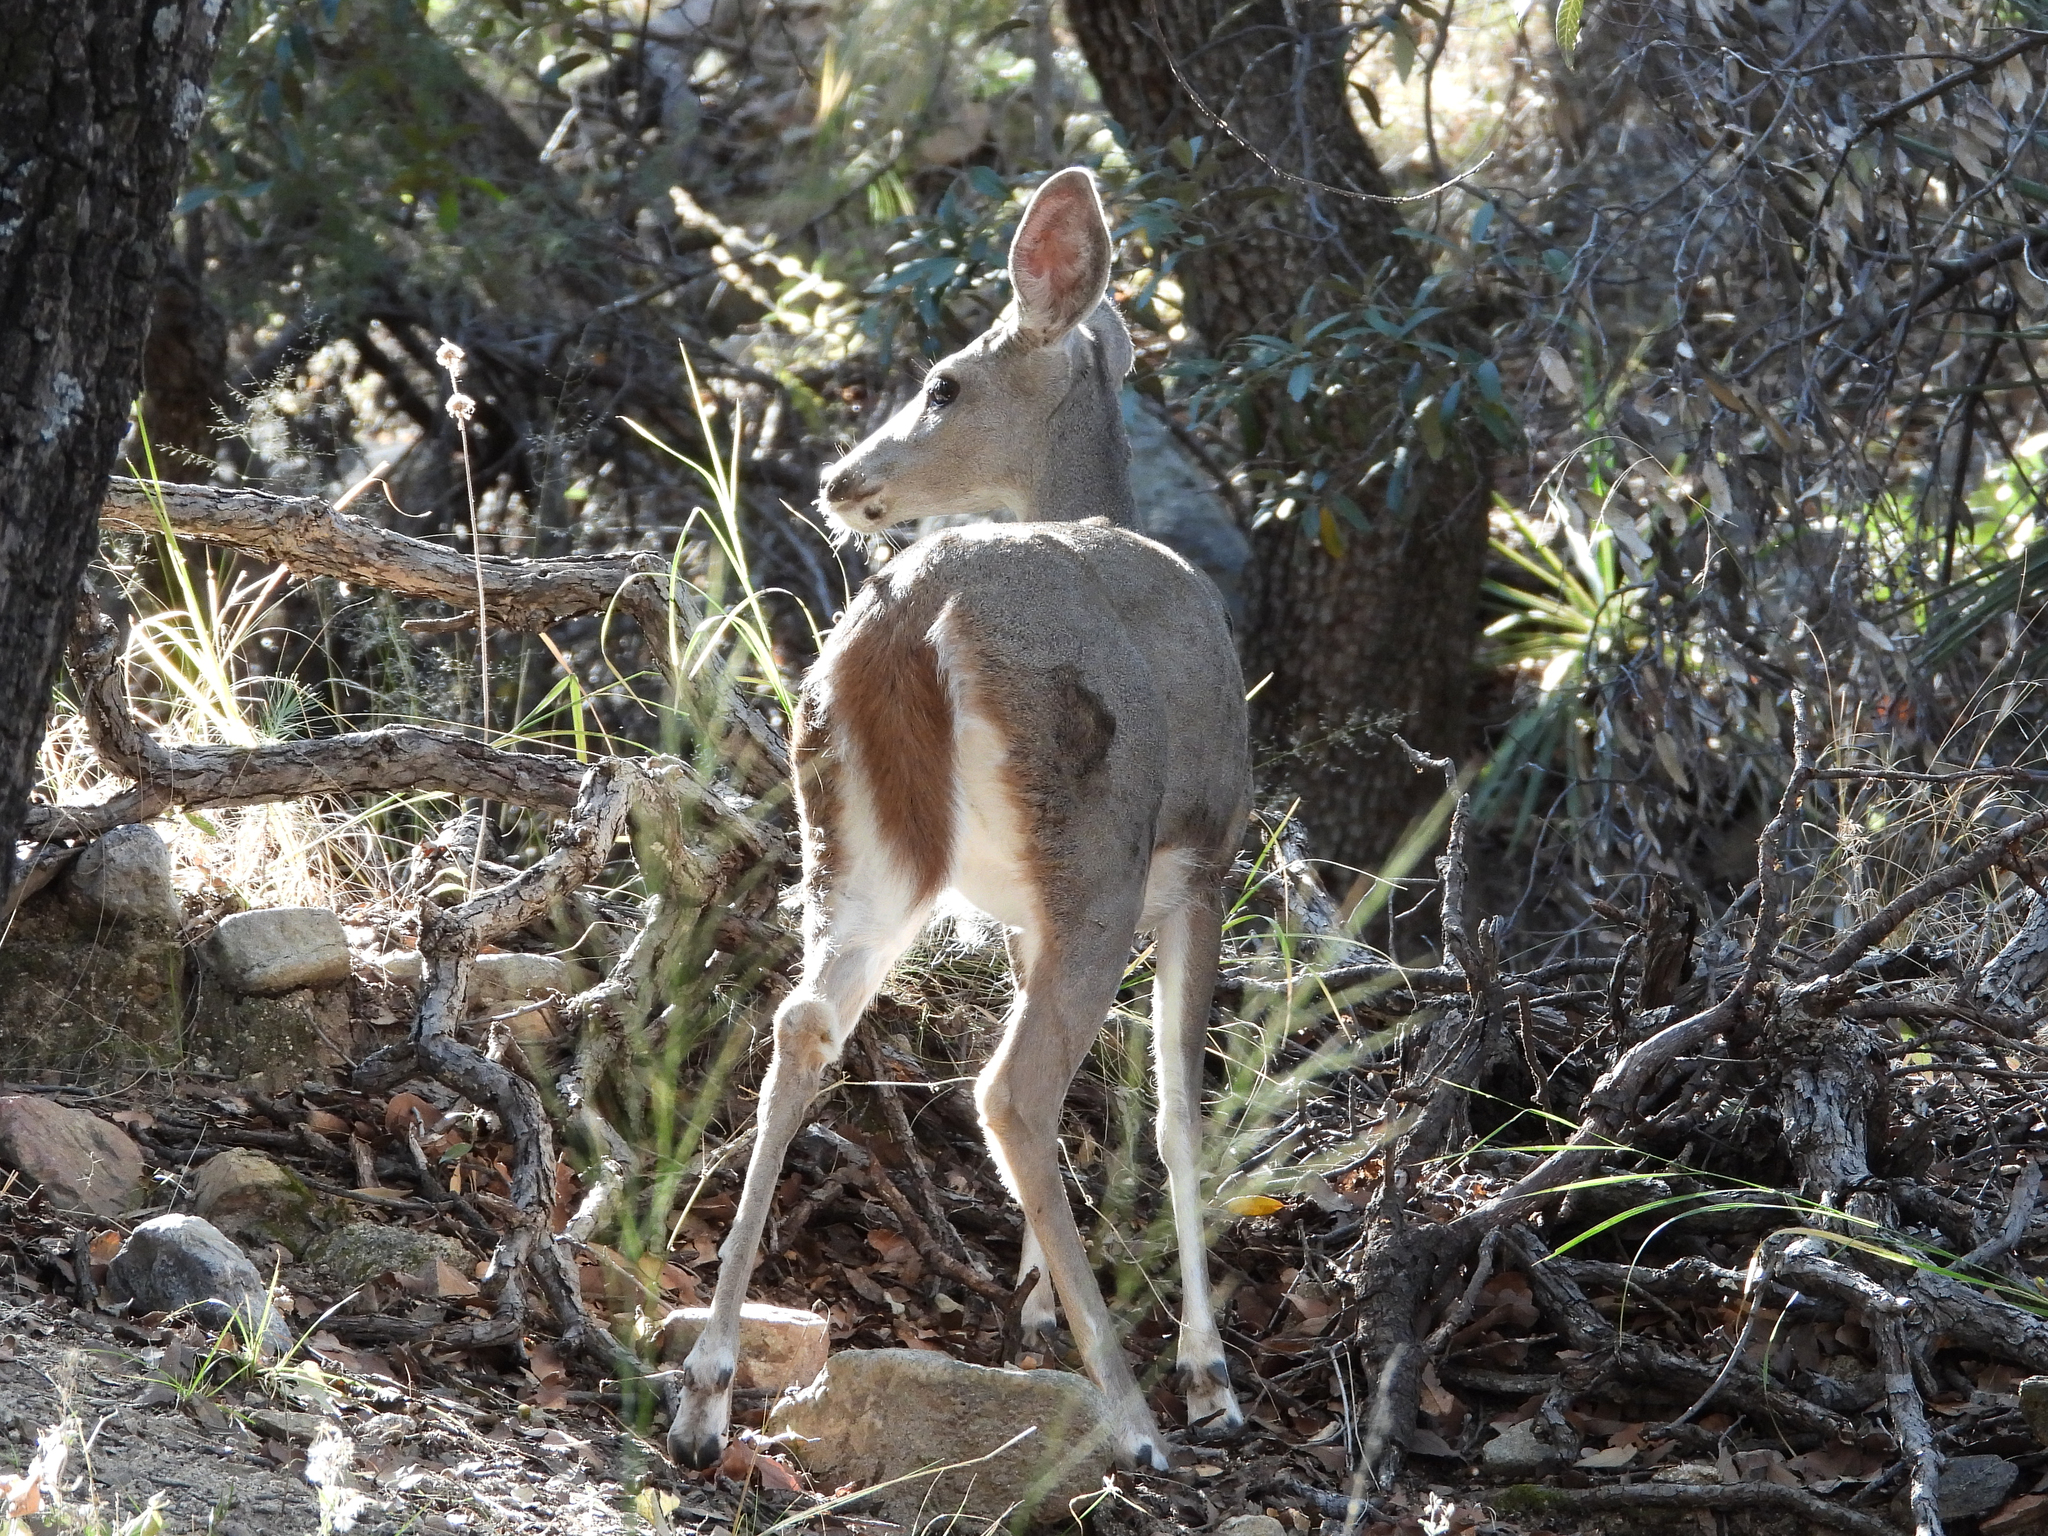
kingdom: Animalia
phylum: Chordata
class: Mammalia
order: Artiodactyla
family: Cervidae
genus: Odocoileus
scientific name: Odocoileus virginianus
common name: White-tailed deer
